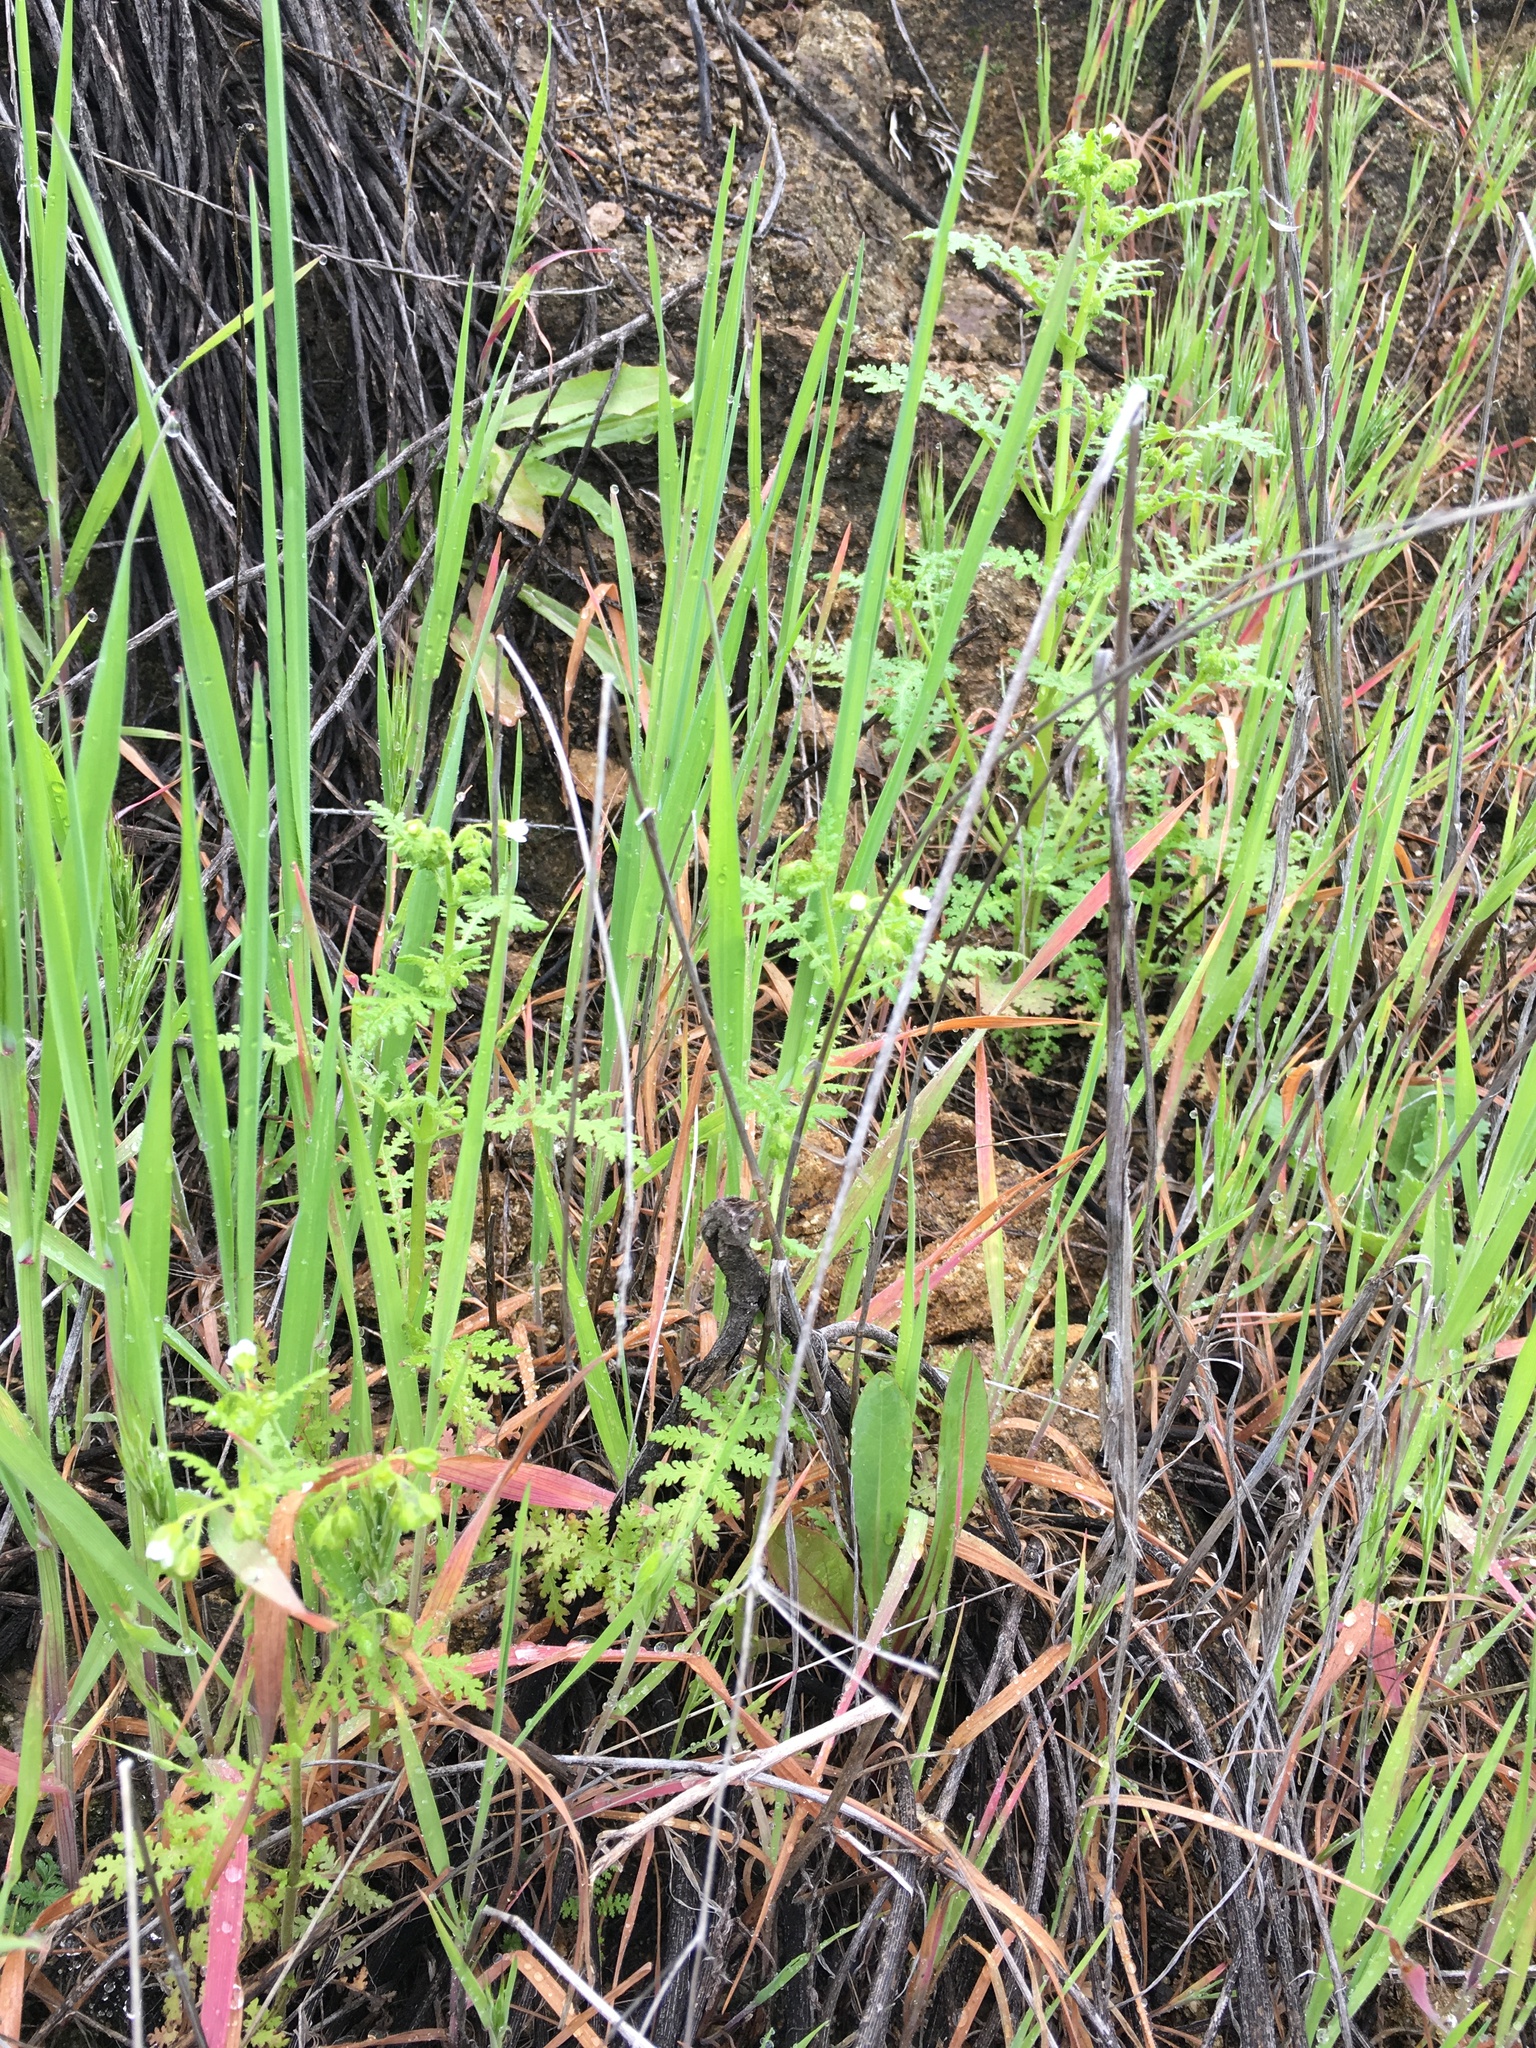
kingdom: Plantae
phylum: Tracheophyta
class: Magnoliopsida
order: Boraginales
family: Hydrophyllaceae
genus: Eucrypta
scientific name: Eucrypta chrysanthemifolia
